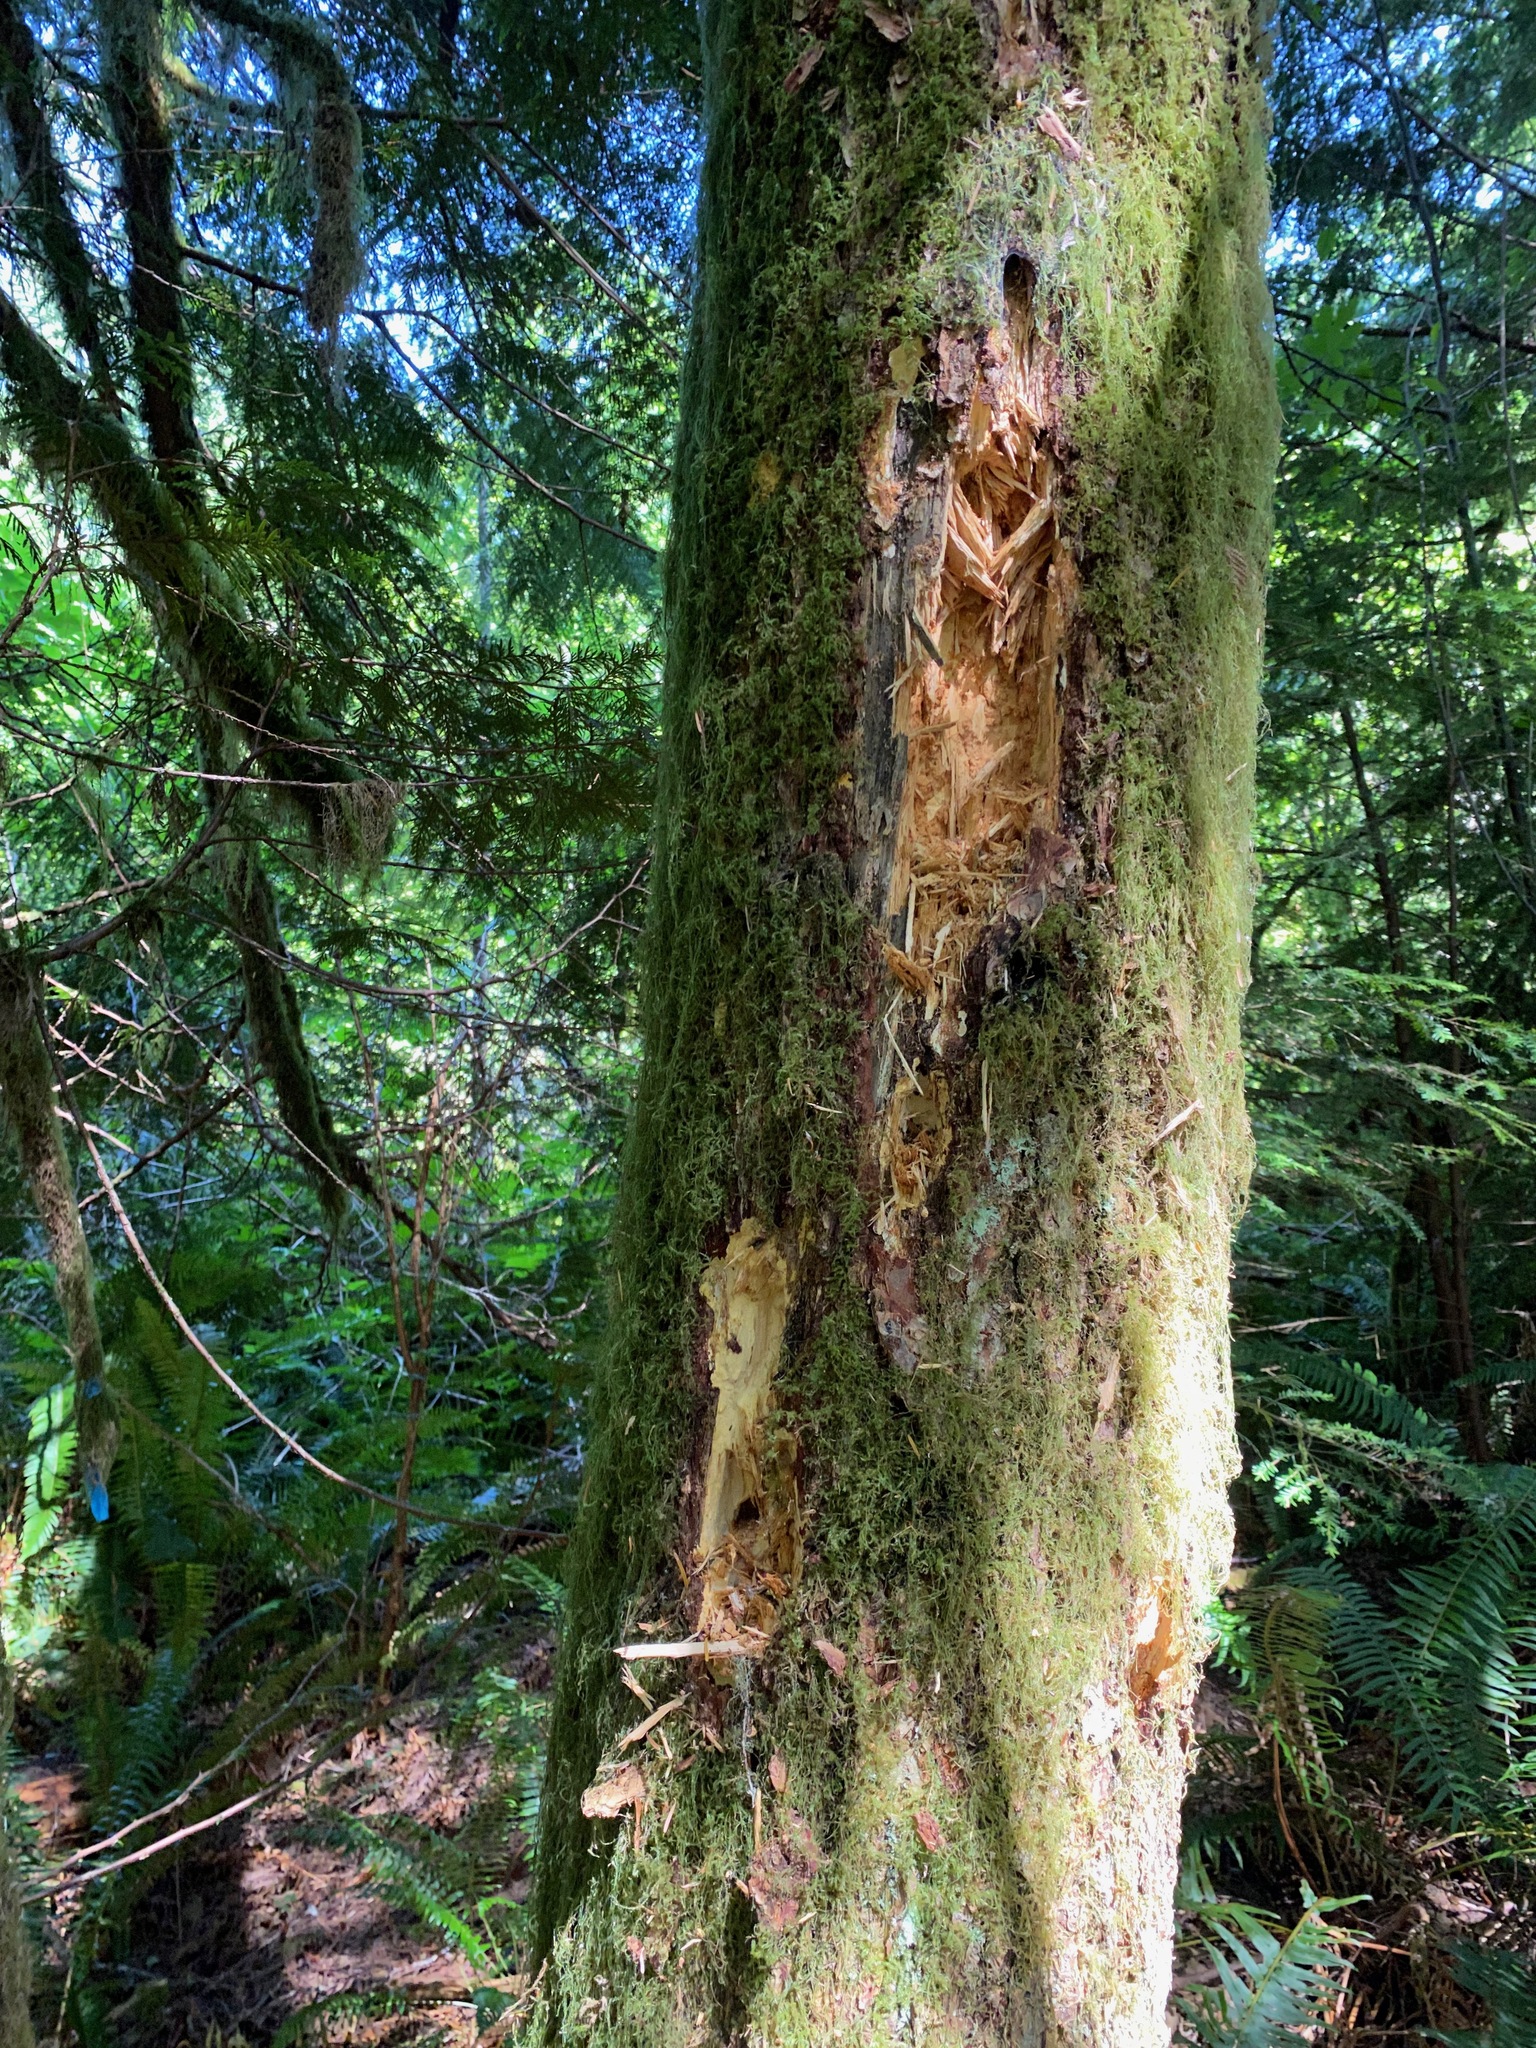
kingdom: Animalia
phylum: Chordata
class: Aves
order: Piciformes
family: Picidae
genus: Dryocopus
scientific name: Dryocopus pileatus
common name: Pileated woodpecker
